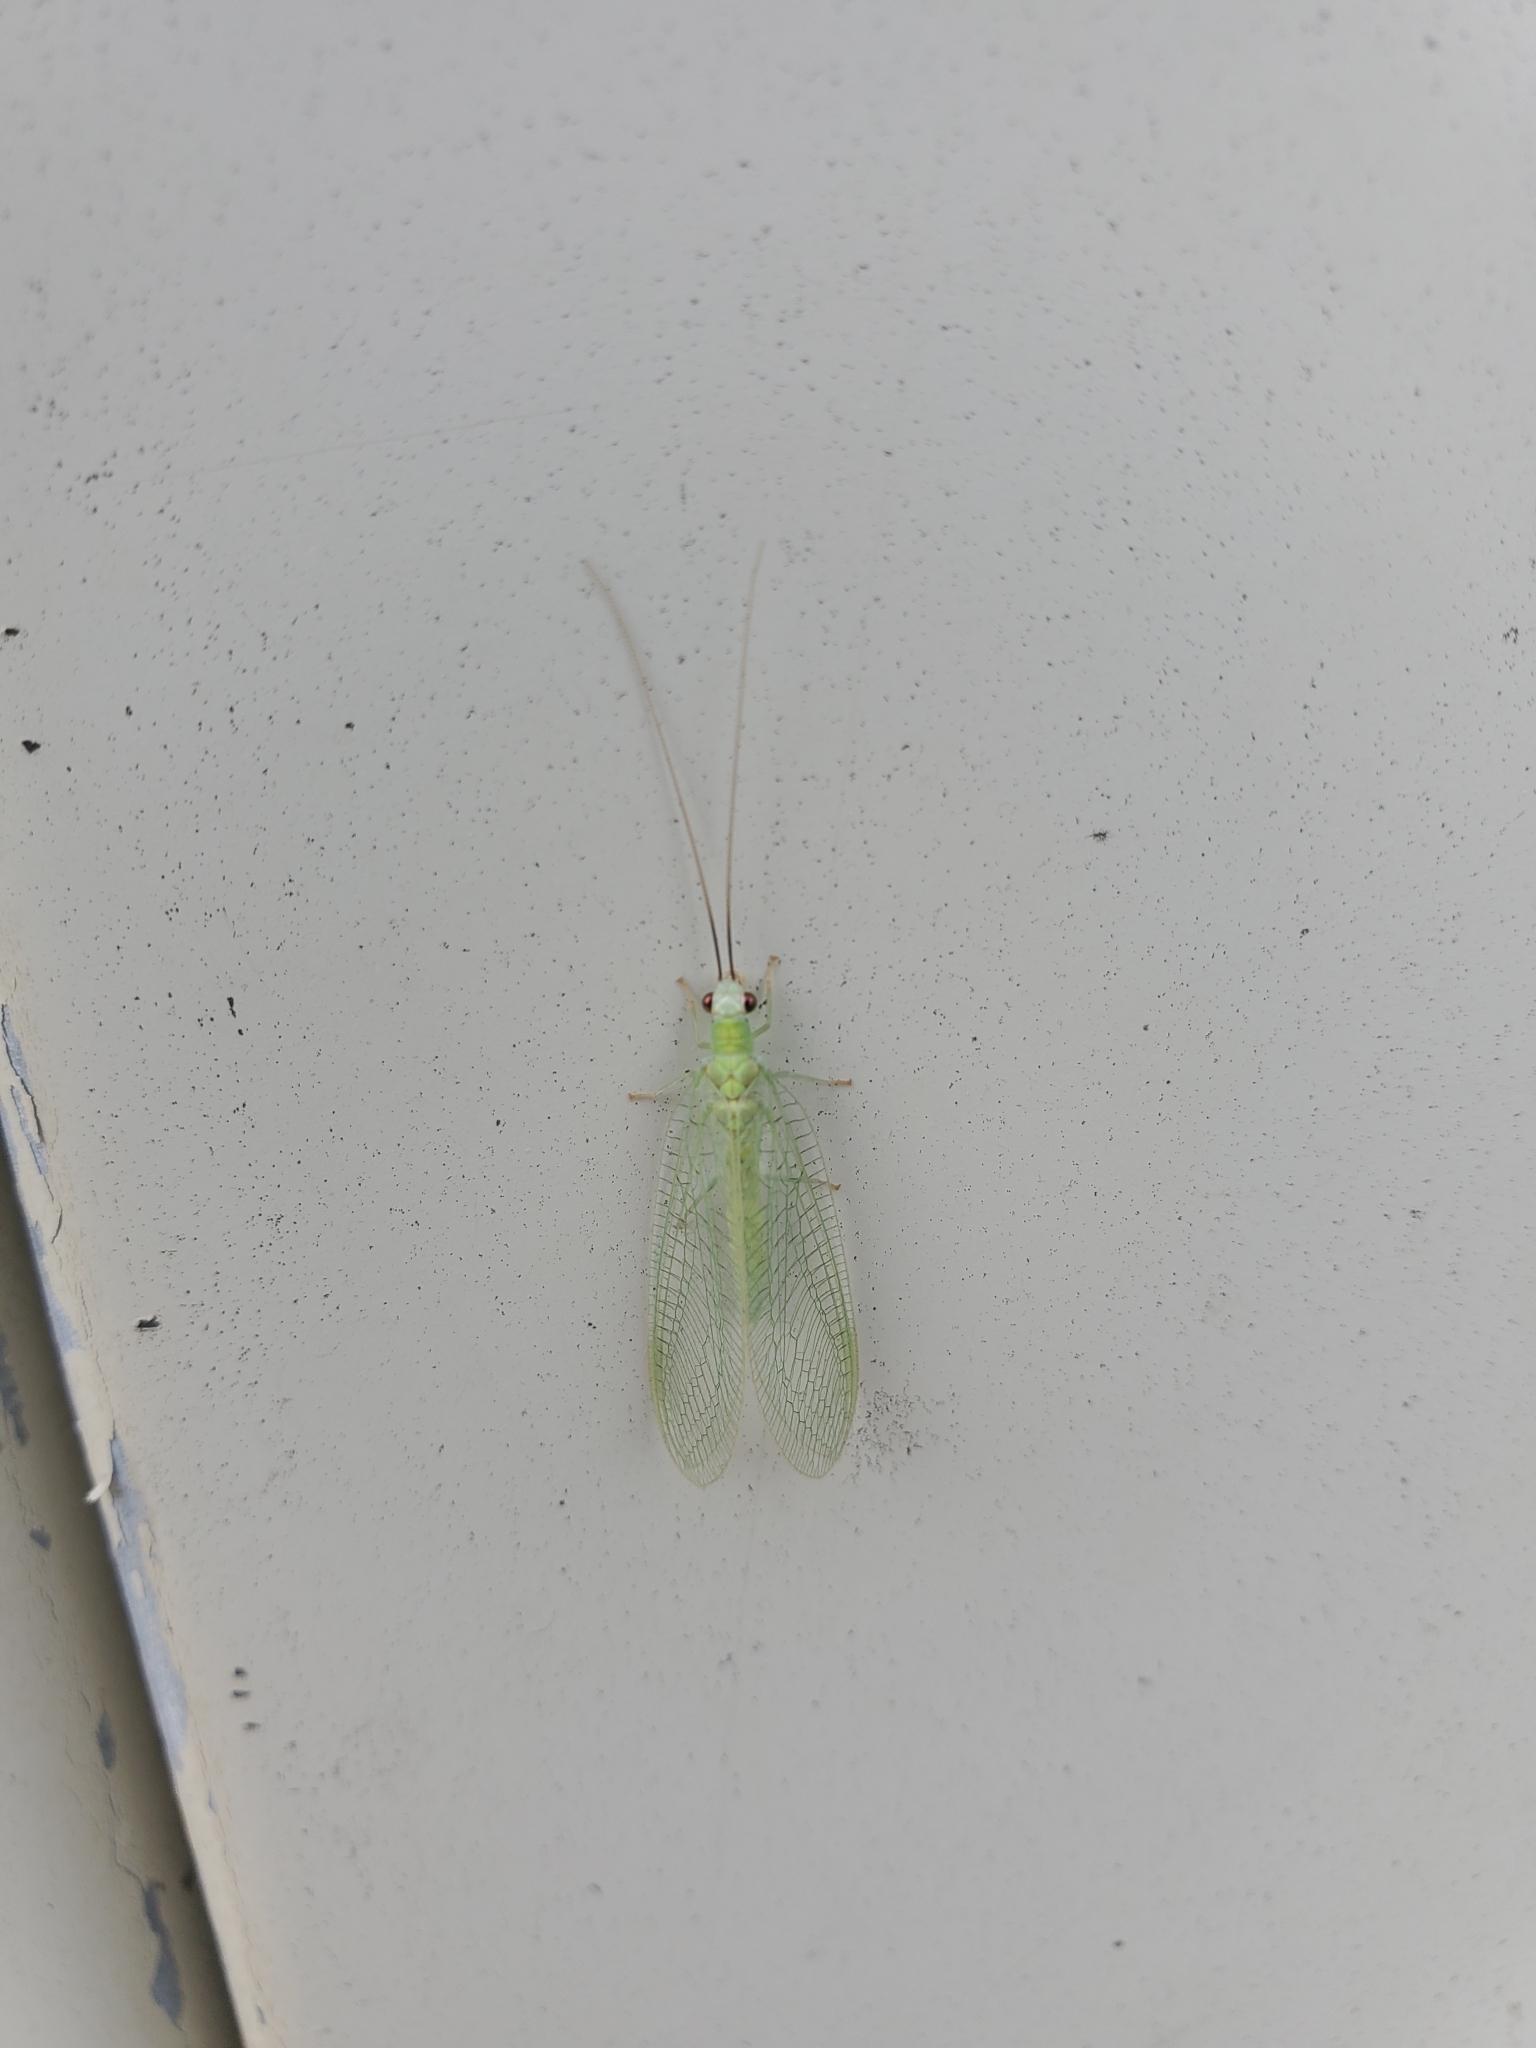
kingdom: Animalia
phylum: Arthropoda
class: Insecta
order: Neuroptera
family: Chrysopidae
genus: Chrysopa
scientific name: Chrysopa nigricornis
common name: Black-horned green lacewing
